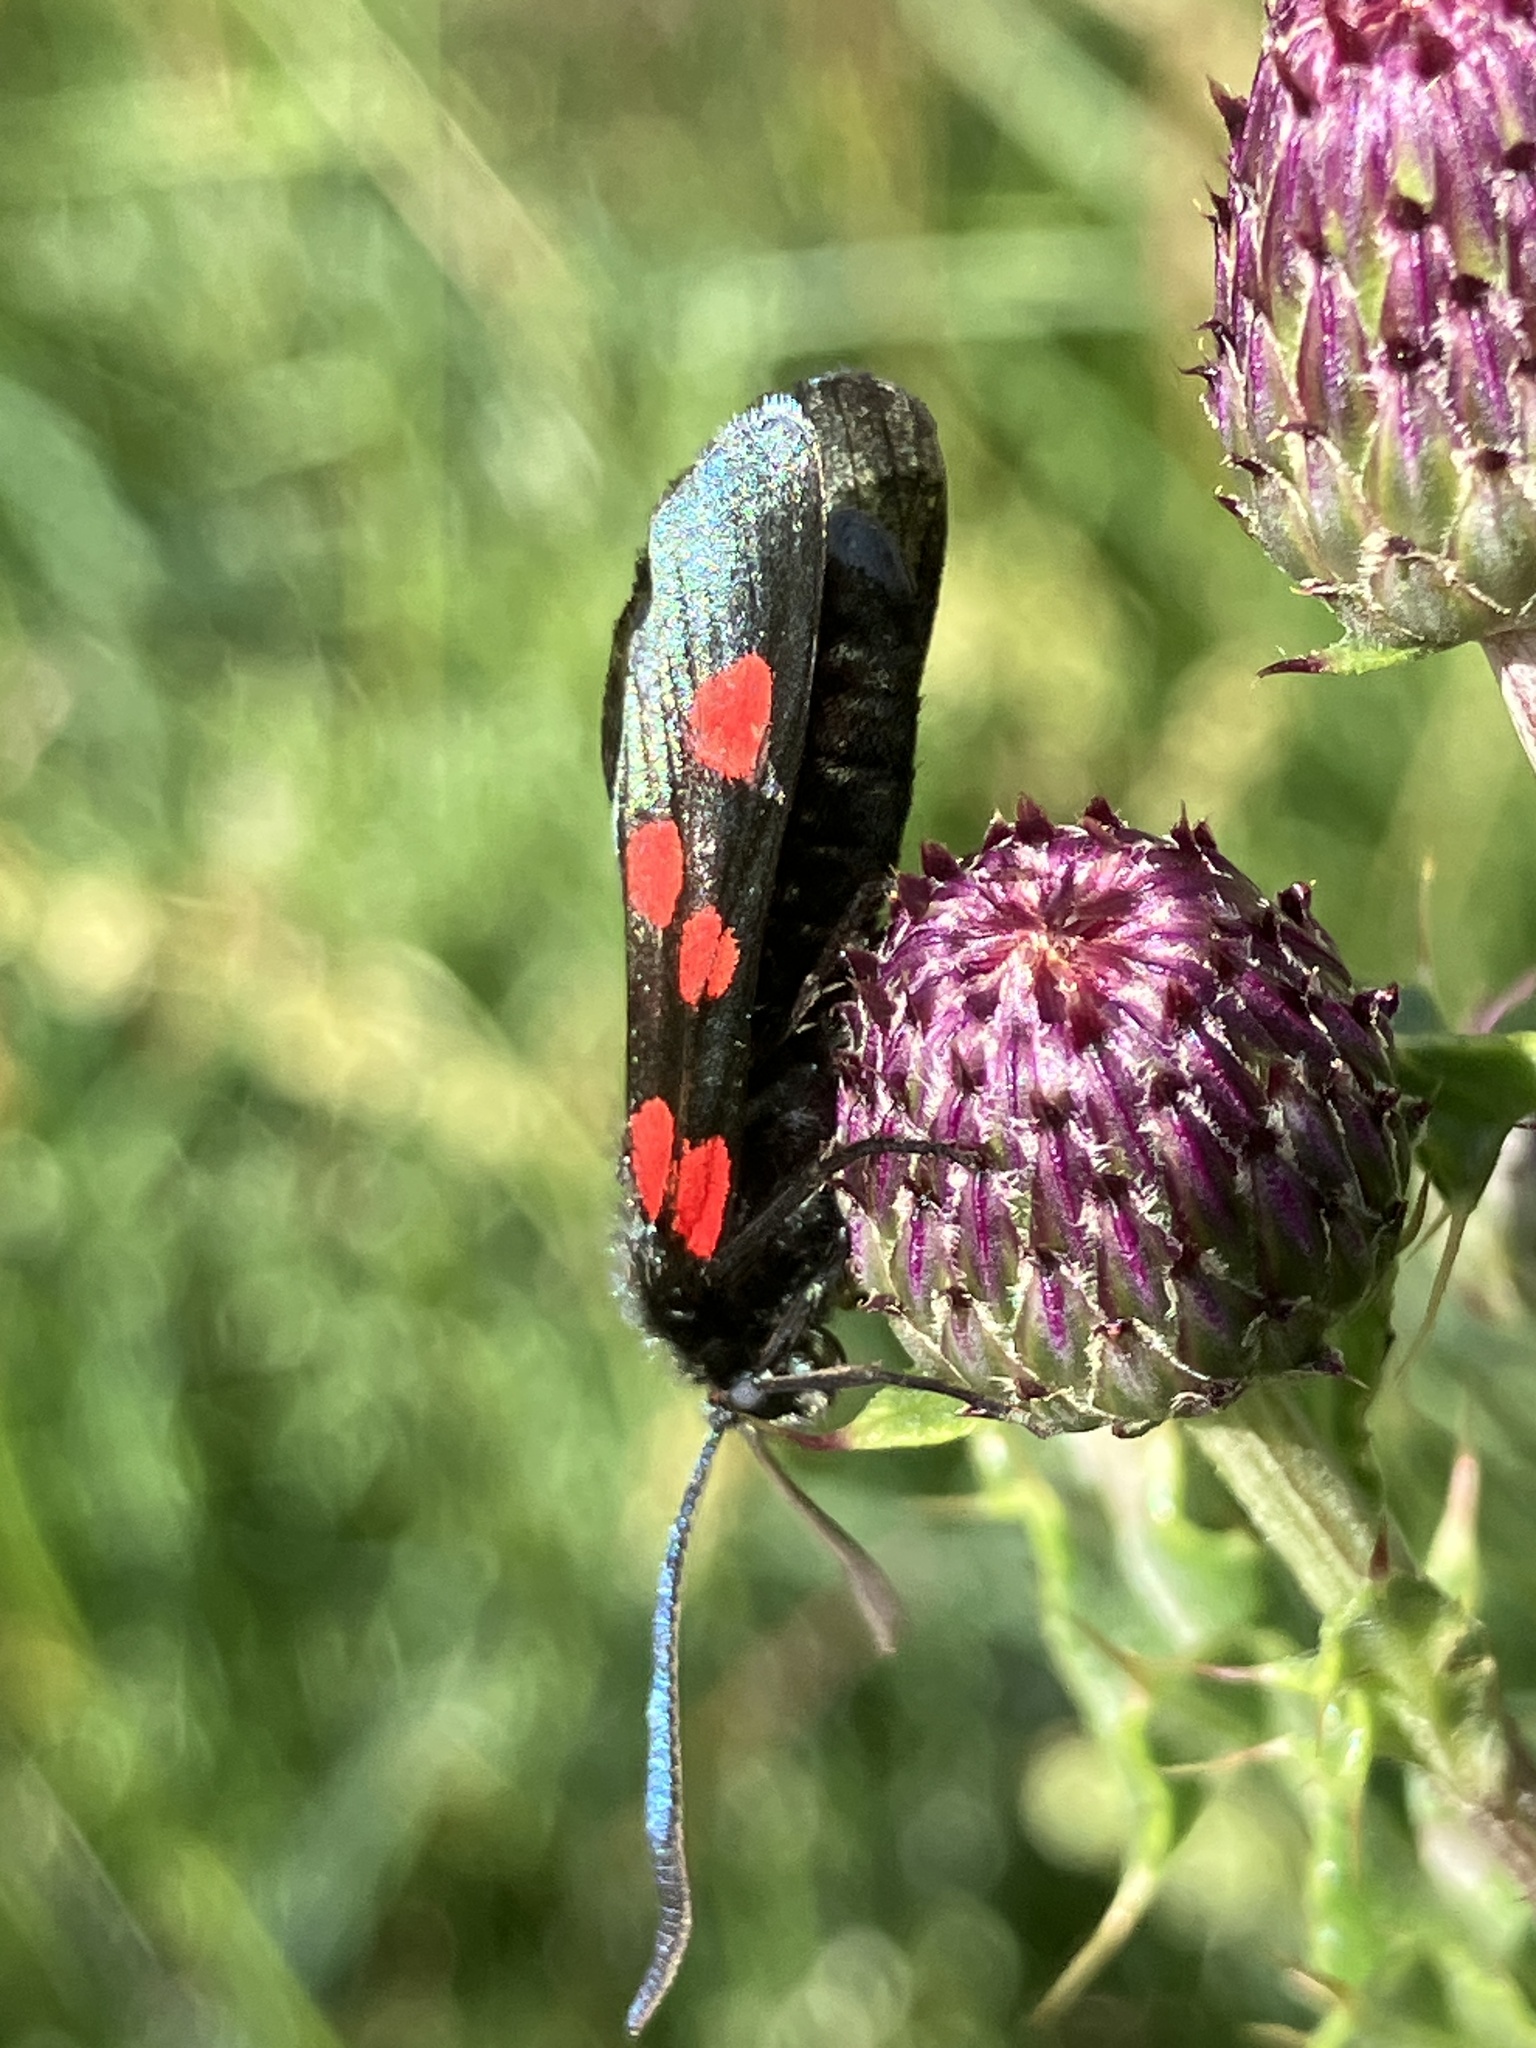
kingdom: Animalia
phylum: Arthropoda
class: Insecta
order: Lepidoptera
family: Zygaenidae
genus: Zygaena
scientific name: Zygaena lonicerae
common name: Narrow-bordered five-spot burnet
